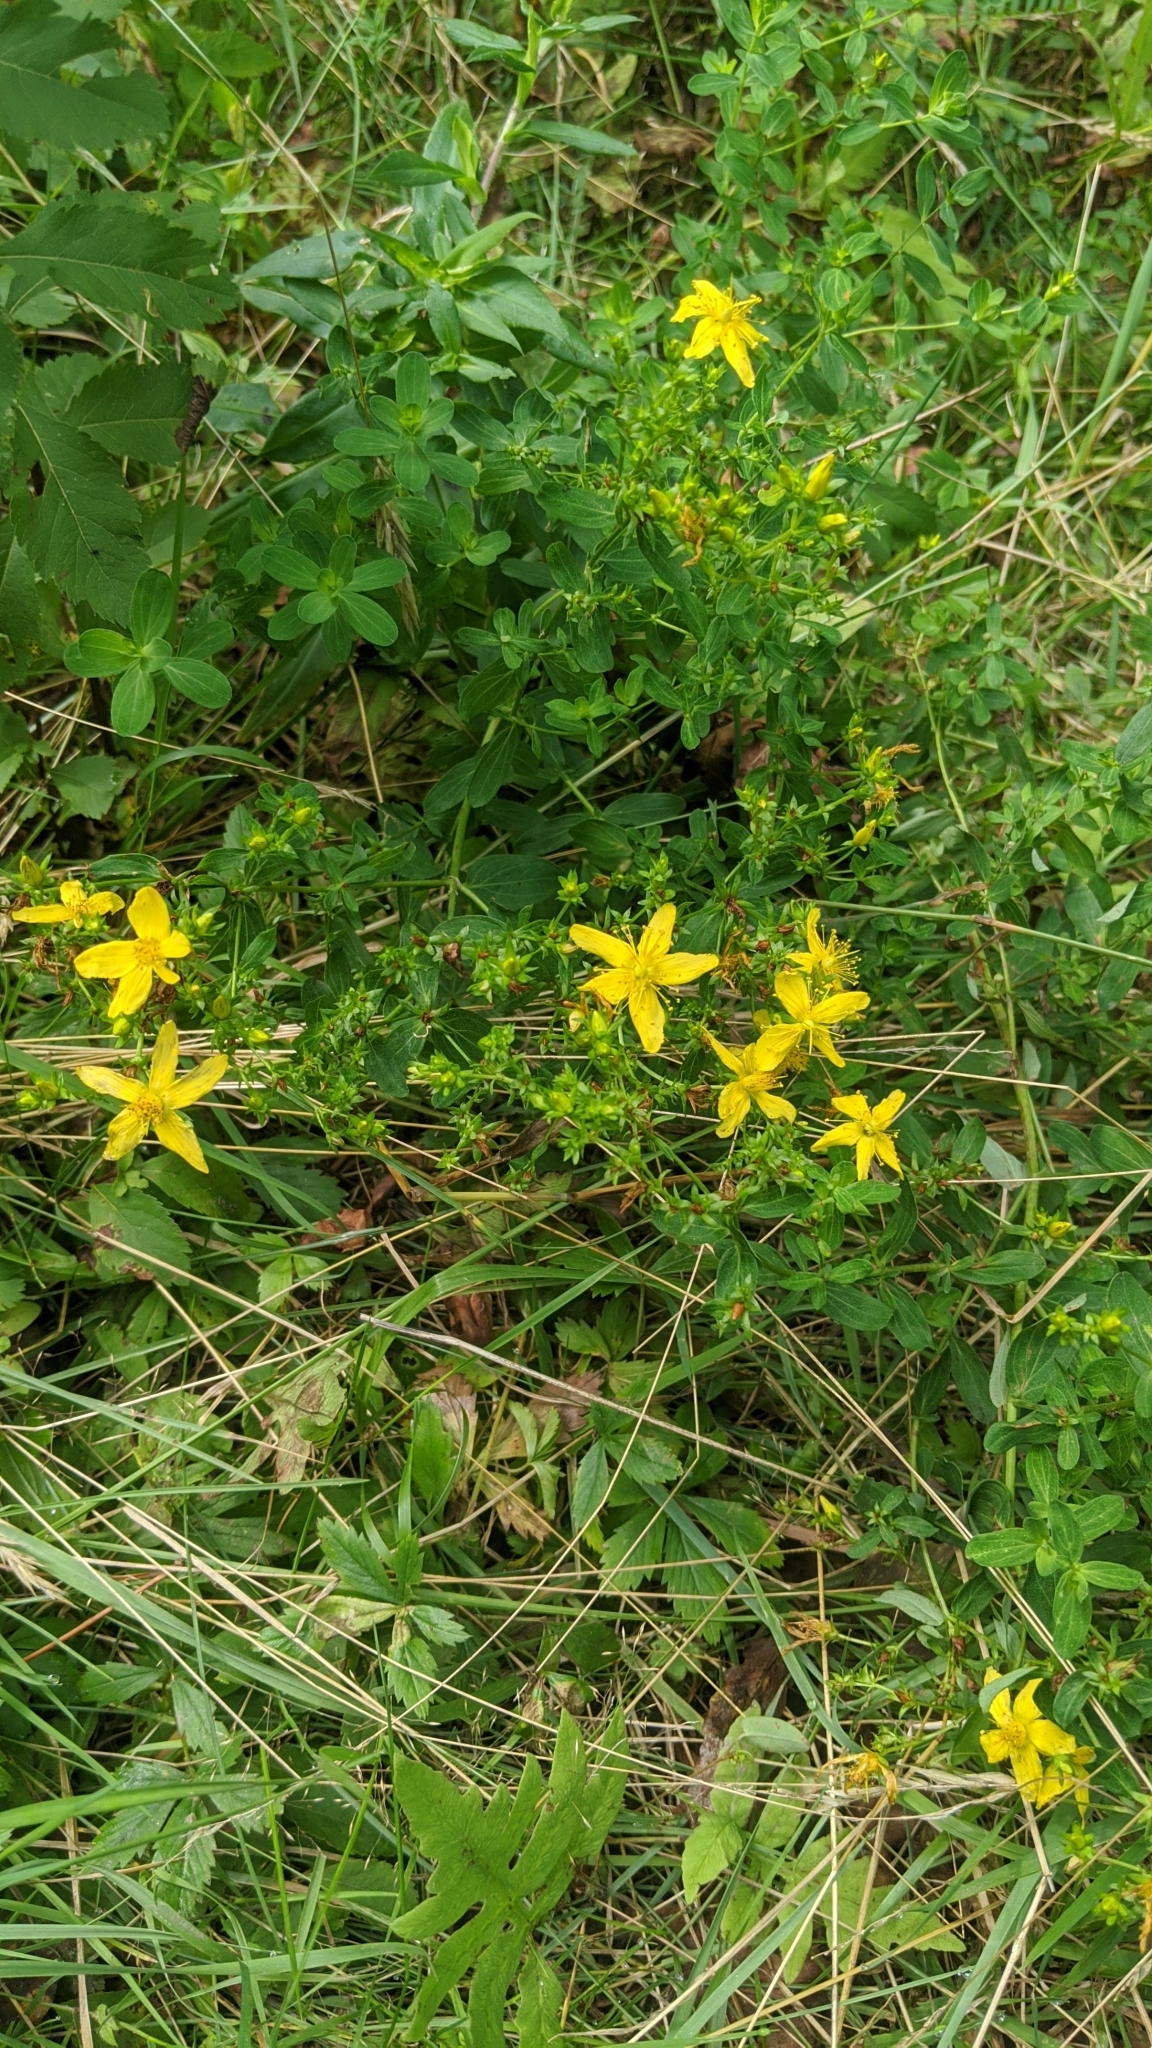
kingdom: Plantae
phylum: Tracheophyta
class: Magnoliopsida
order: Malpighiales
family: Hypericaceae
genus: Hypericum
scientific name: Hypericum perforatum
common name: Common st. johnswort
